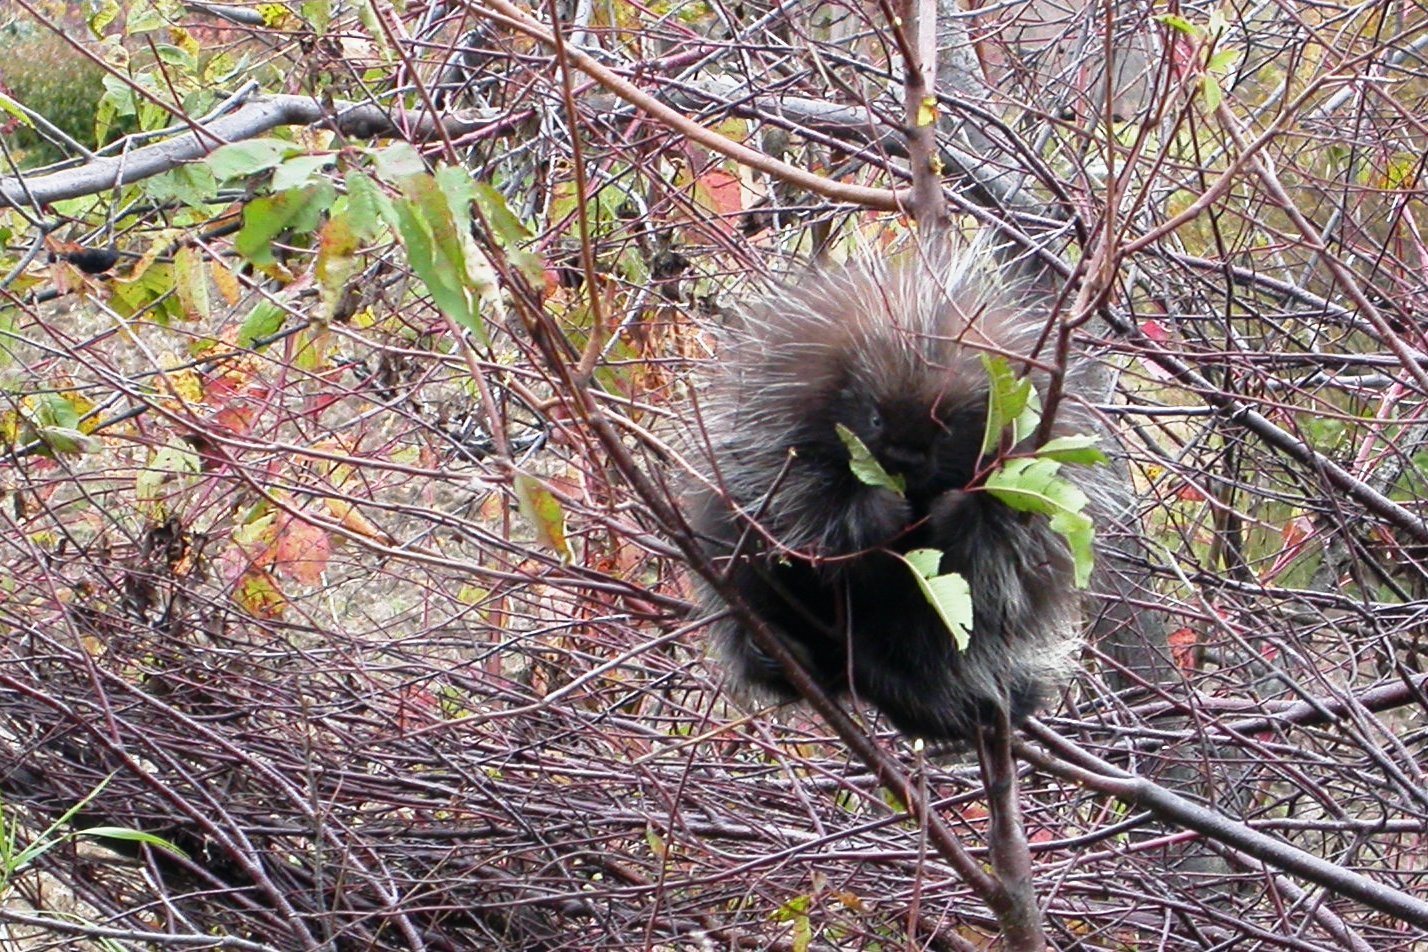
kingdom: Animalia
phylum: Chordata
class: Mammalia
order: Rodentia
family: Erethizontidae
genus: Erethizon
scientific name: Erethizon dorsatus
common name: North american porcupine
